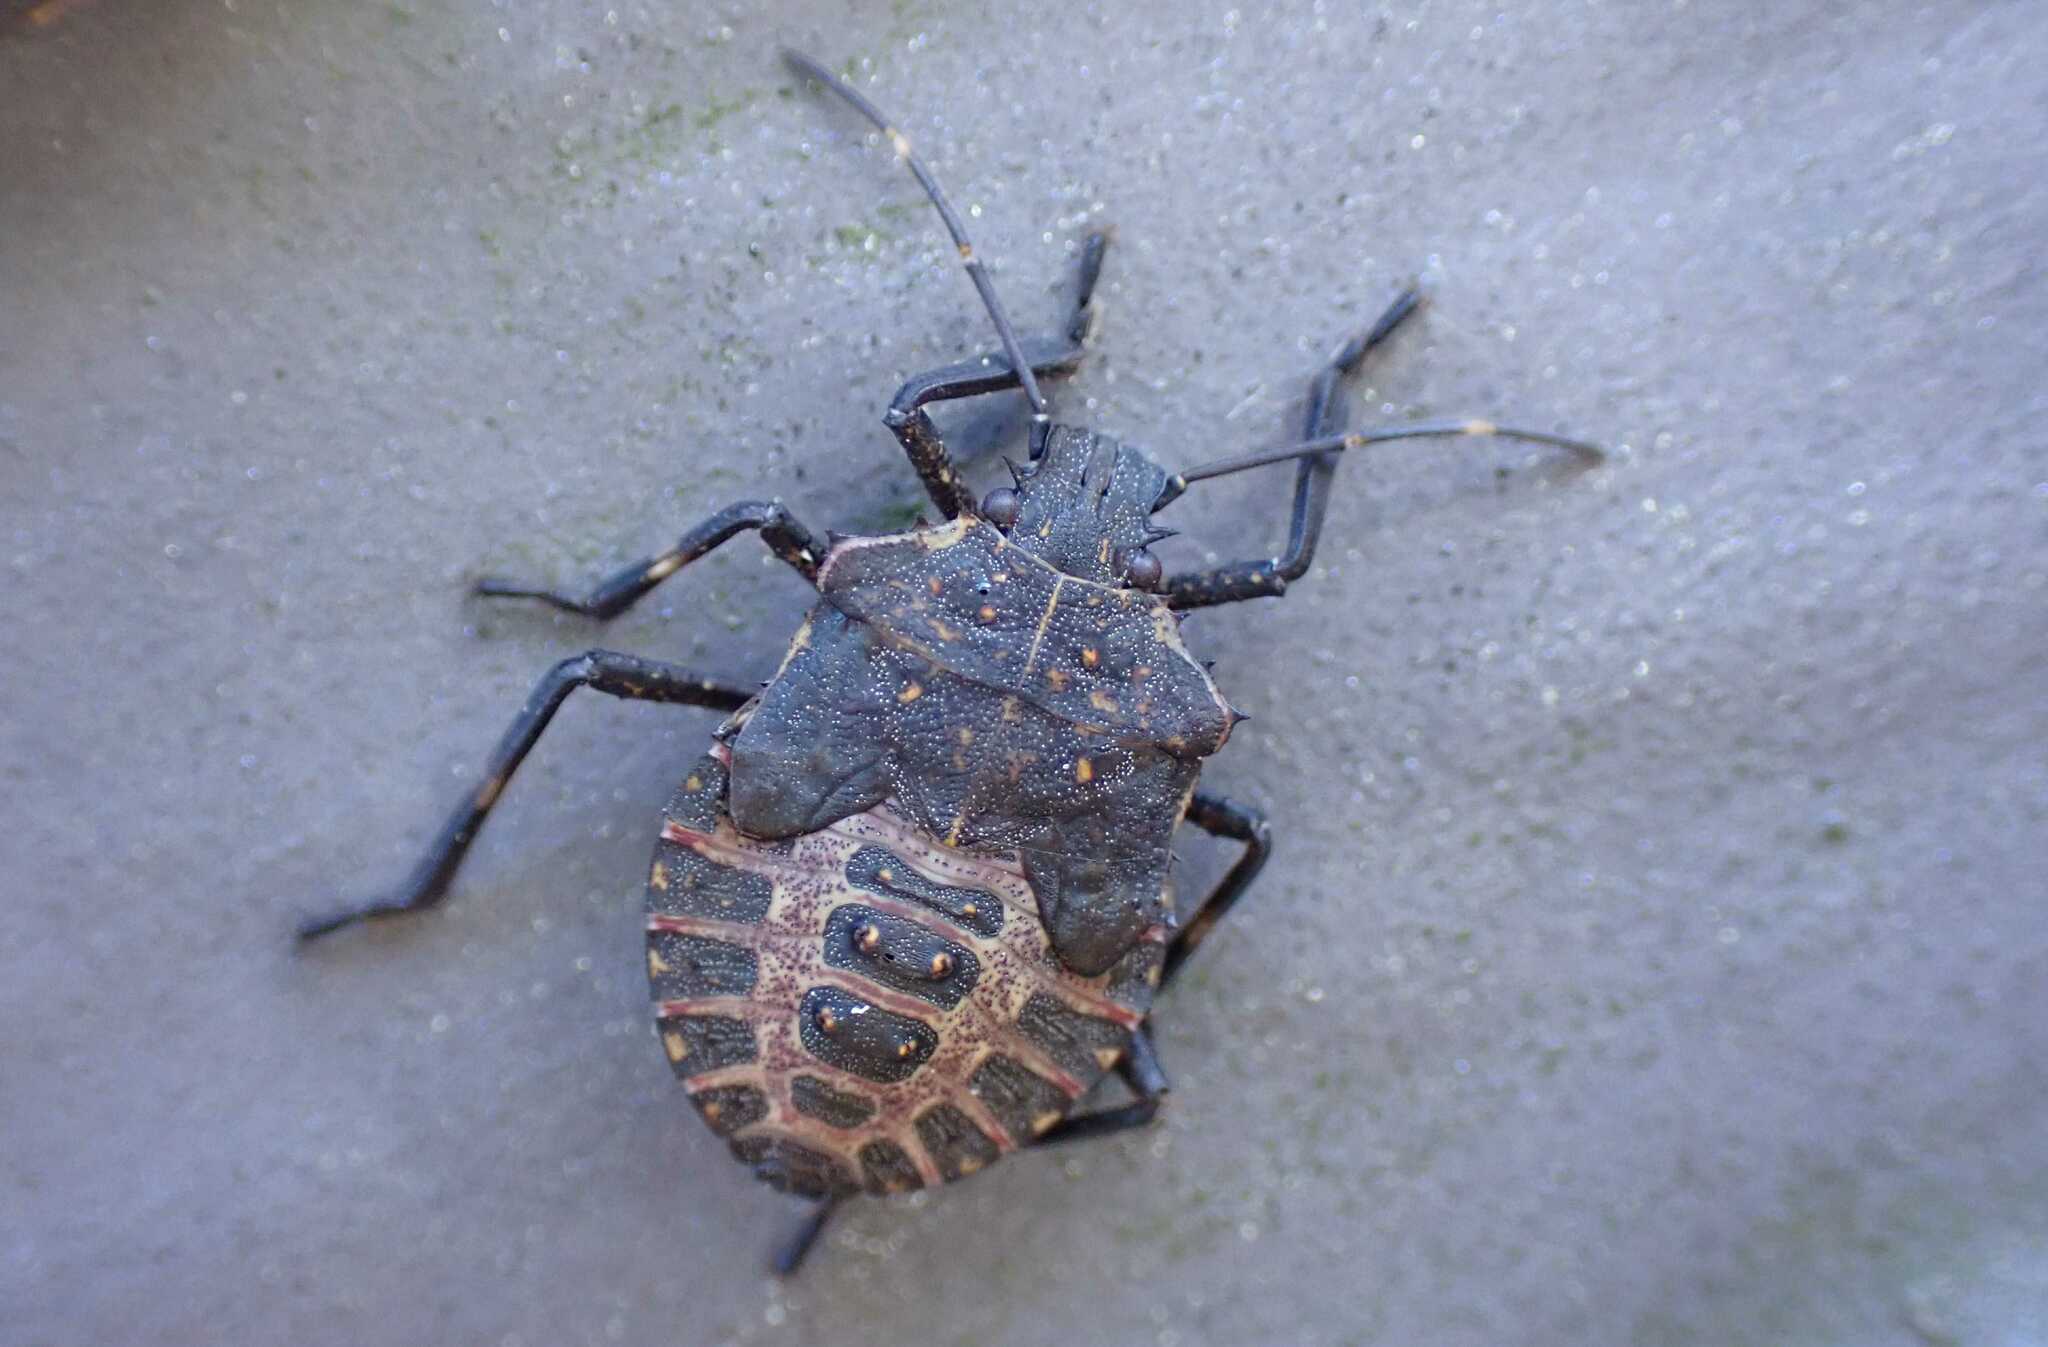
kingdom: Animalia
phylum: Arthropoda
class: Insecta
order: Hemiptera
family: Pentatomidae
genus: Halyomorpha
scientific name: Halyomorpha halys
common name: Brown marmorated stink bug
